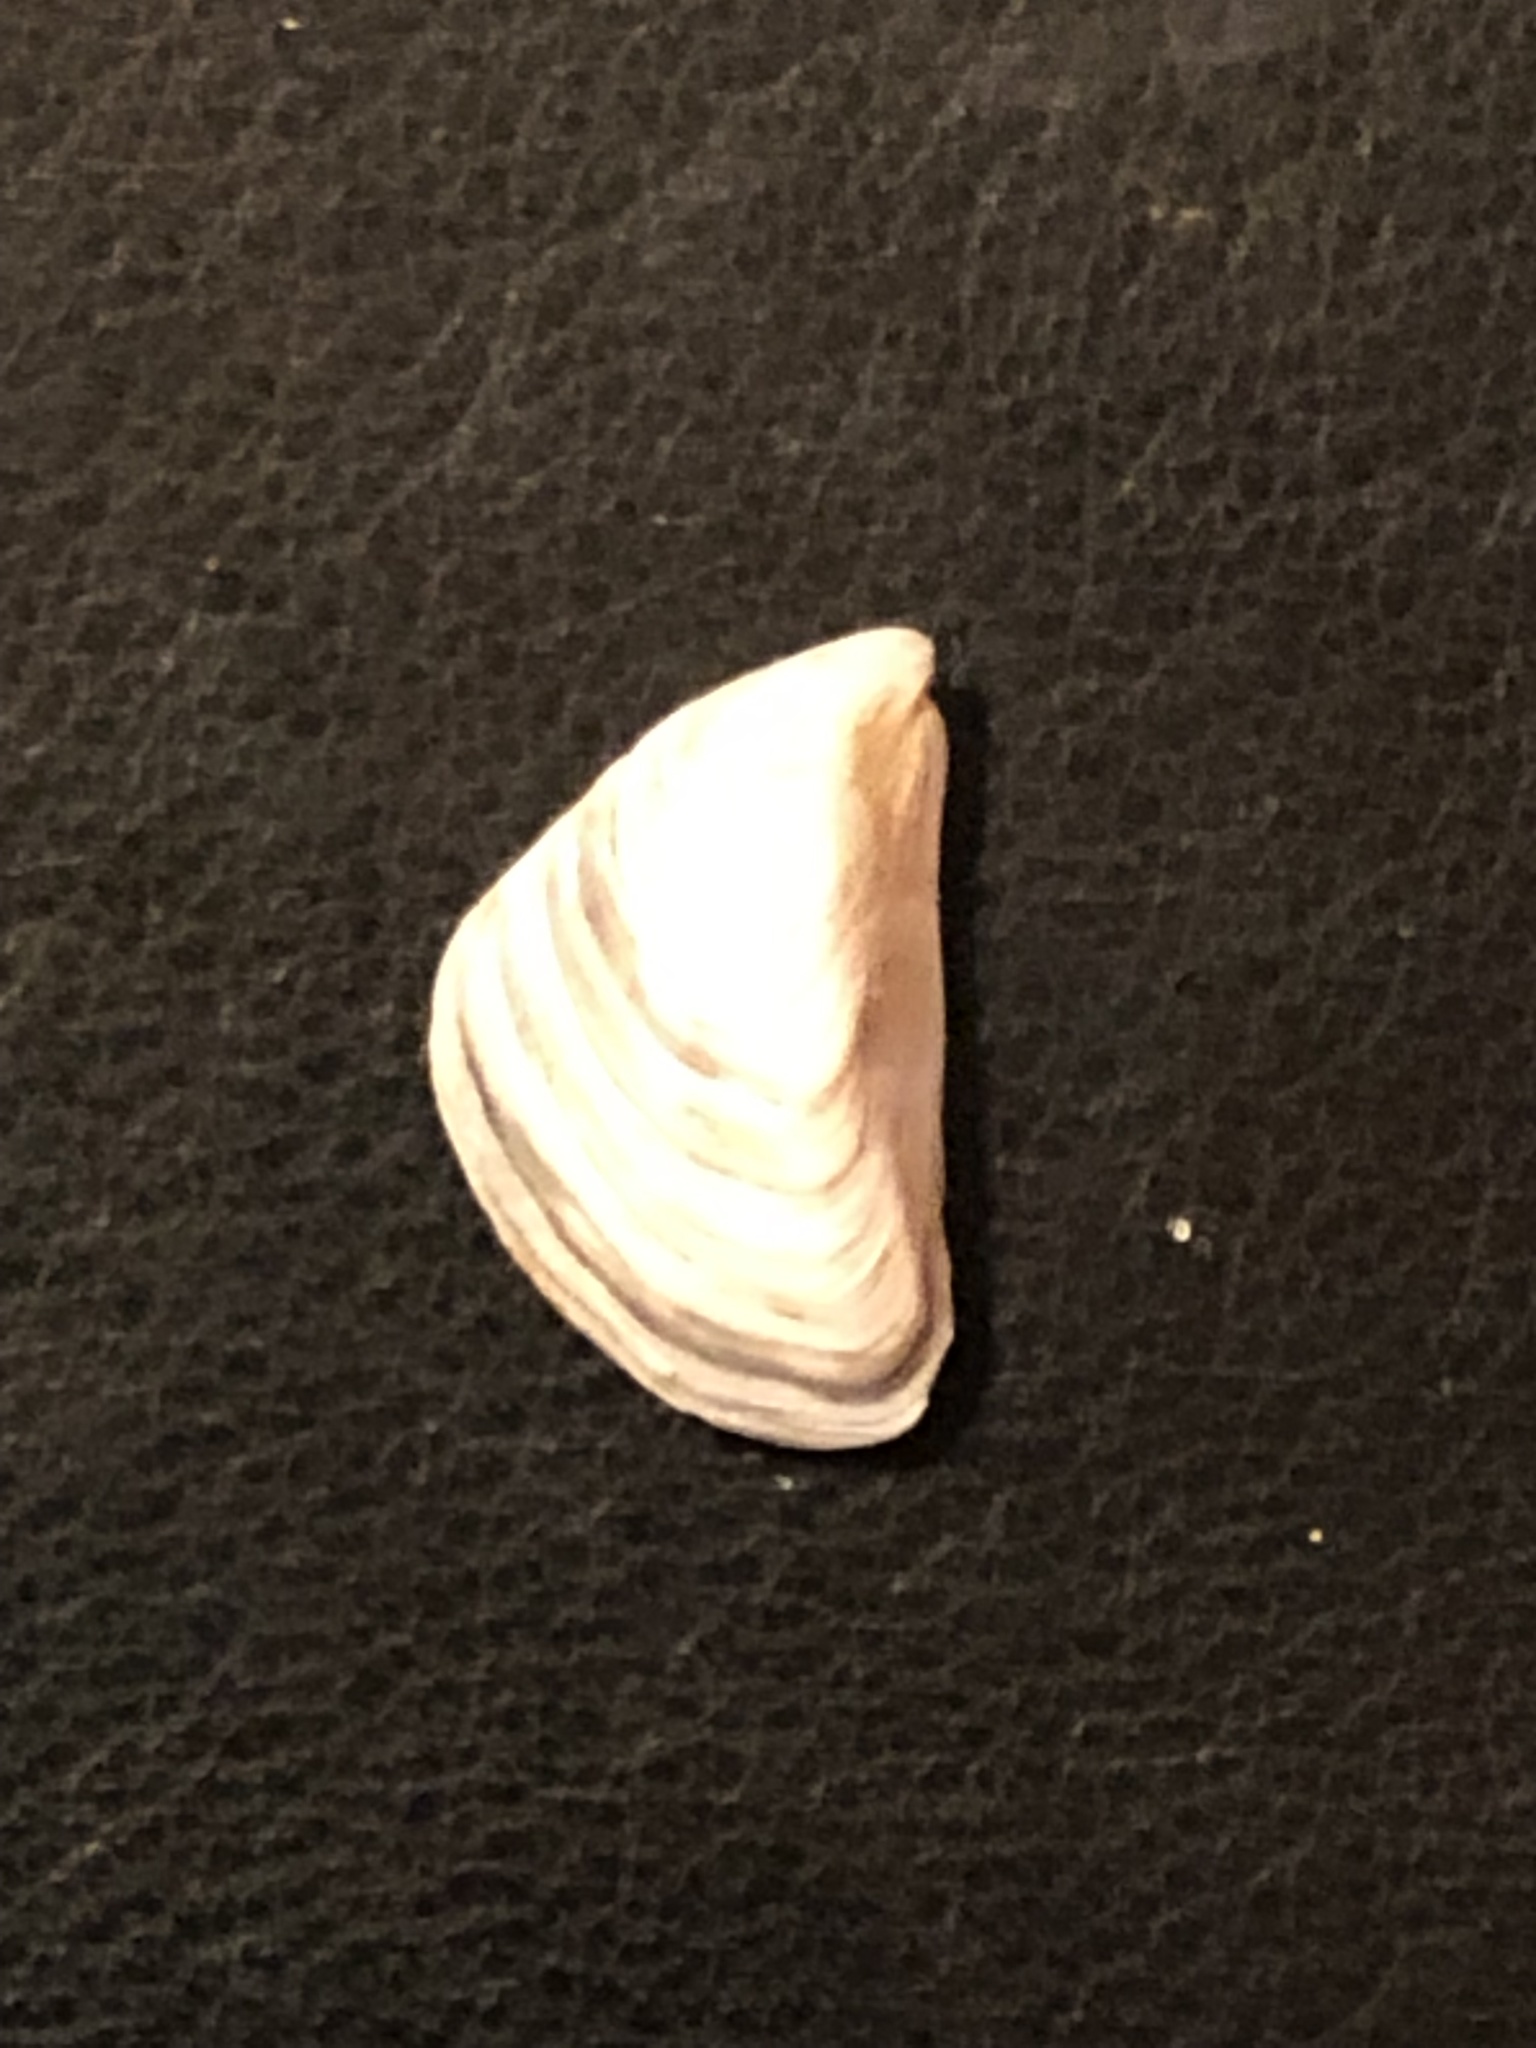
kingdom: Animalia
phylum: Mollusca
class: Bivalvia
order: Myida
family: Dreissenidae
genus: Dreissena
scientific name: Dreissena bugensis
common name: Quagga mussel
